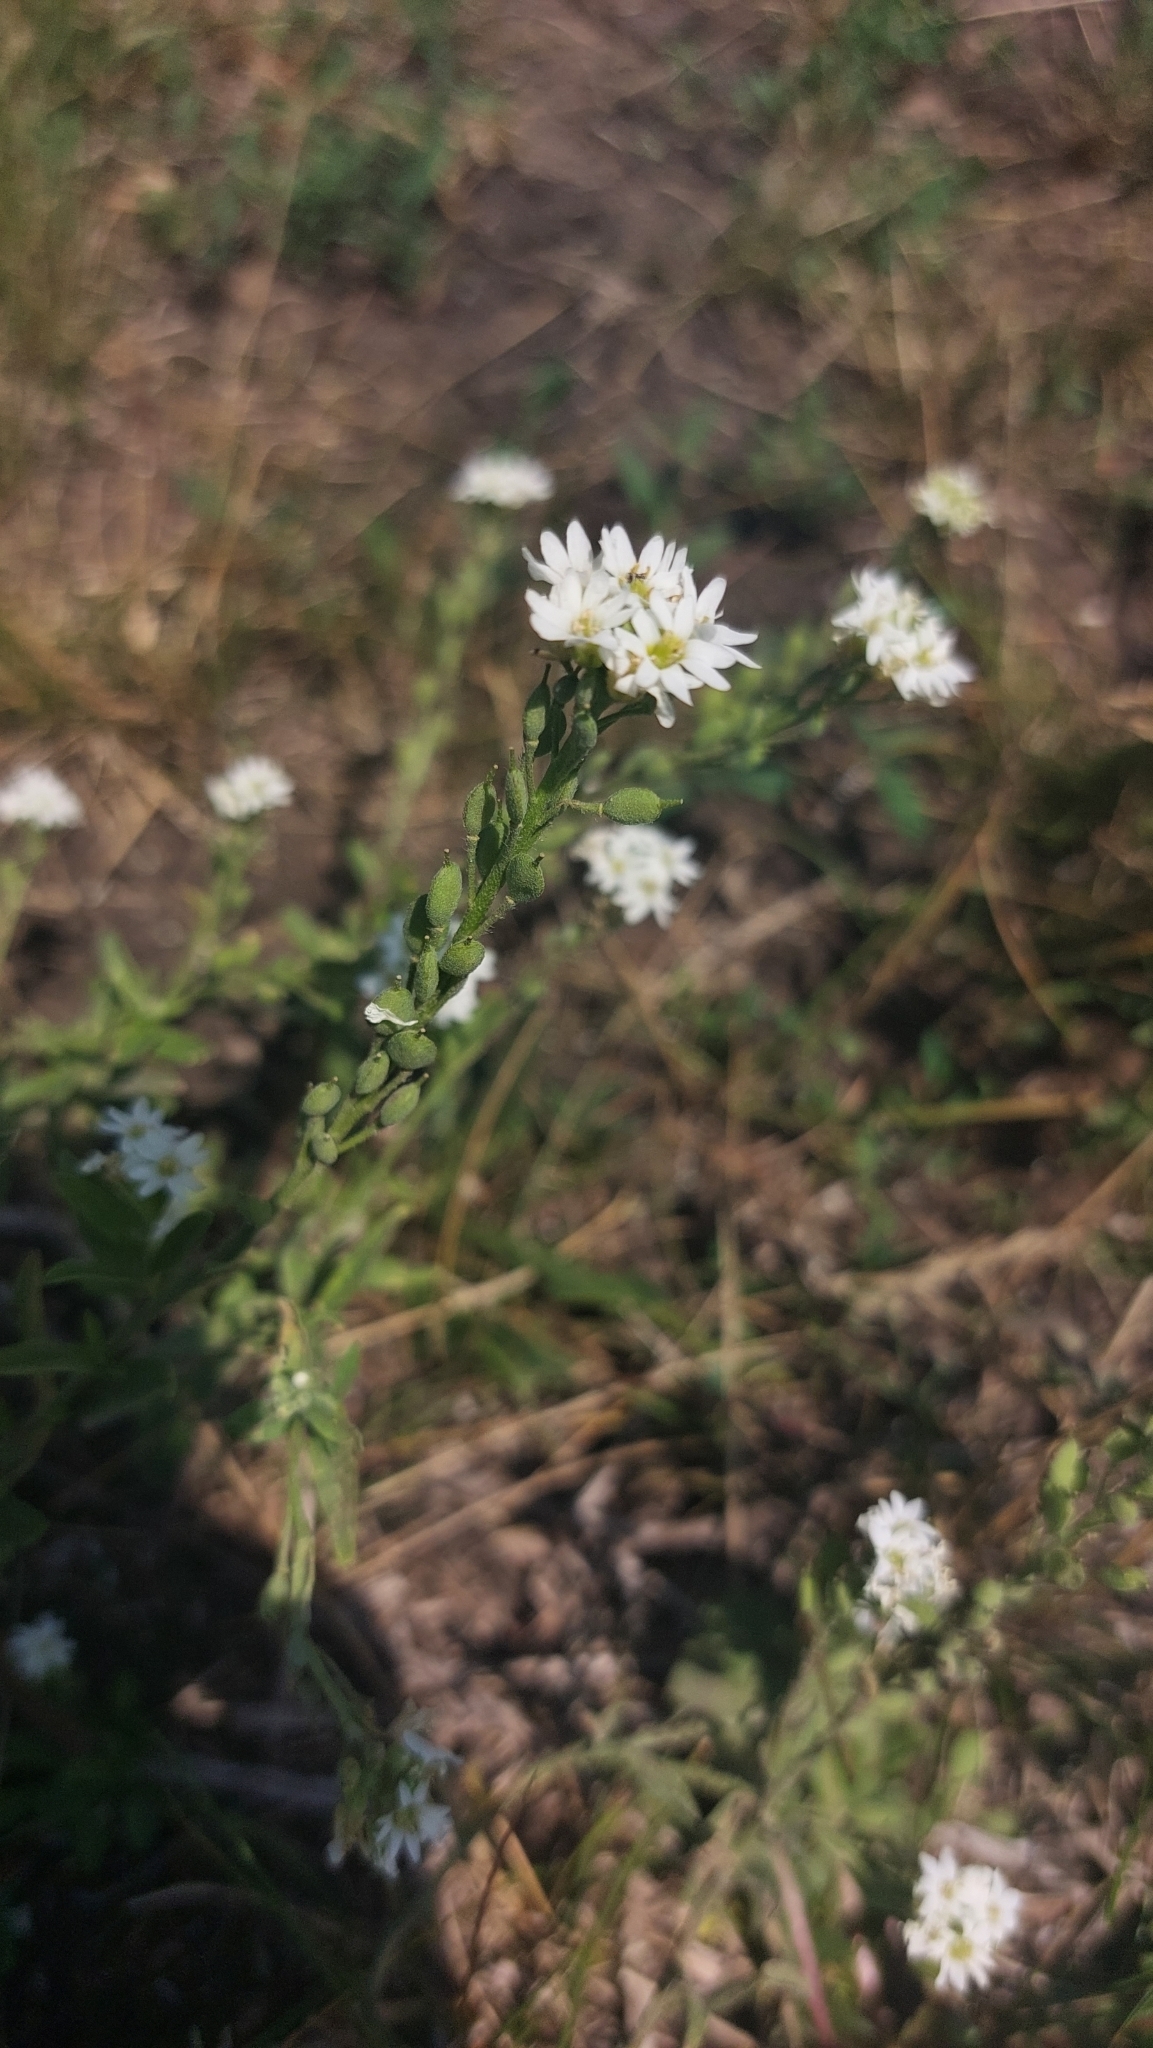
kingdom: Plantae
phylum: Tracheophyta
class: Magnoliopsida
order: Brassicales
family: Brassicaceae
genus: Berteroa
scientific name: Berteroa incana
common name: Hoary alison
